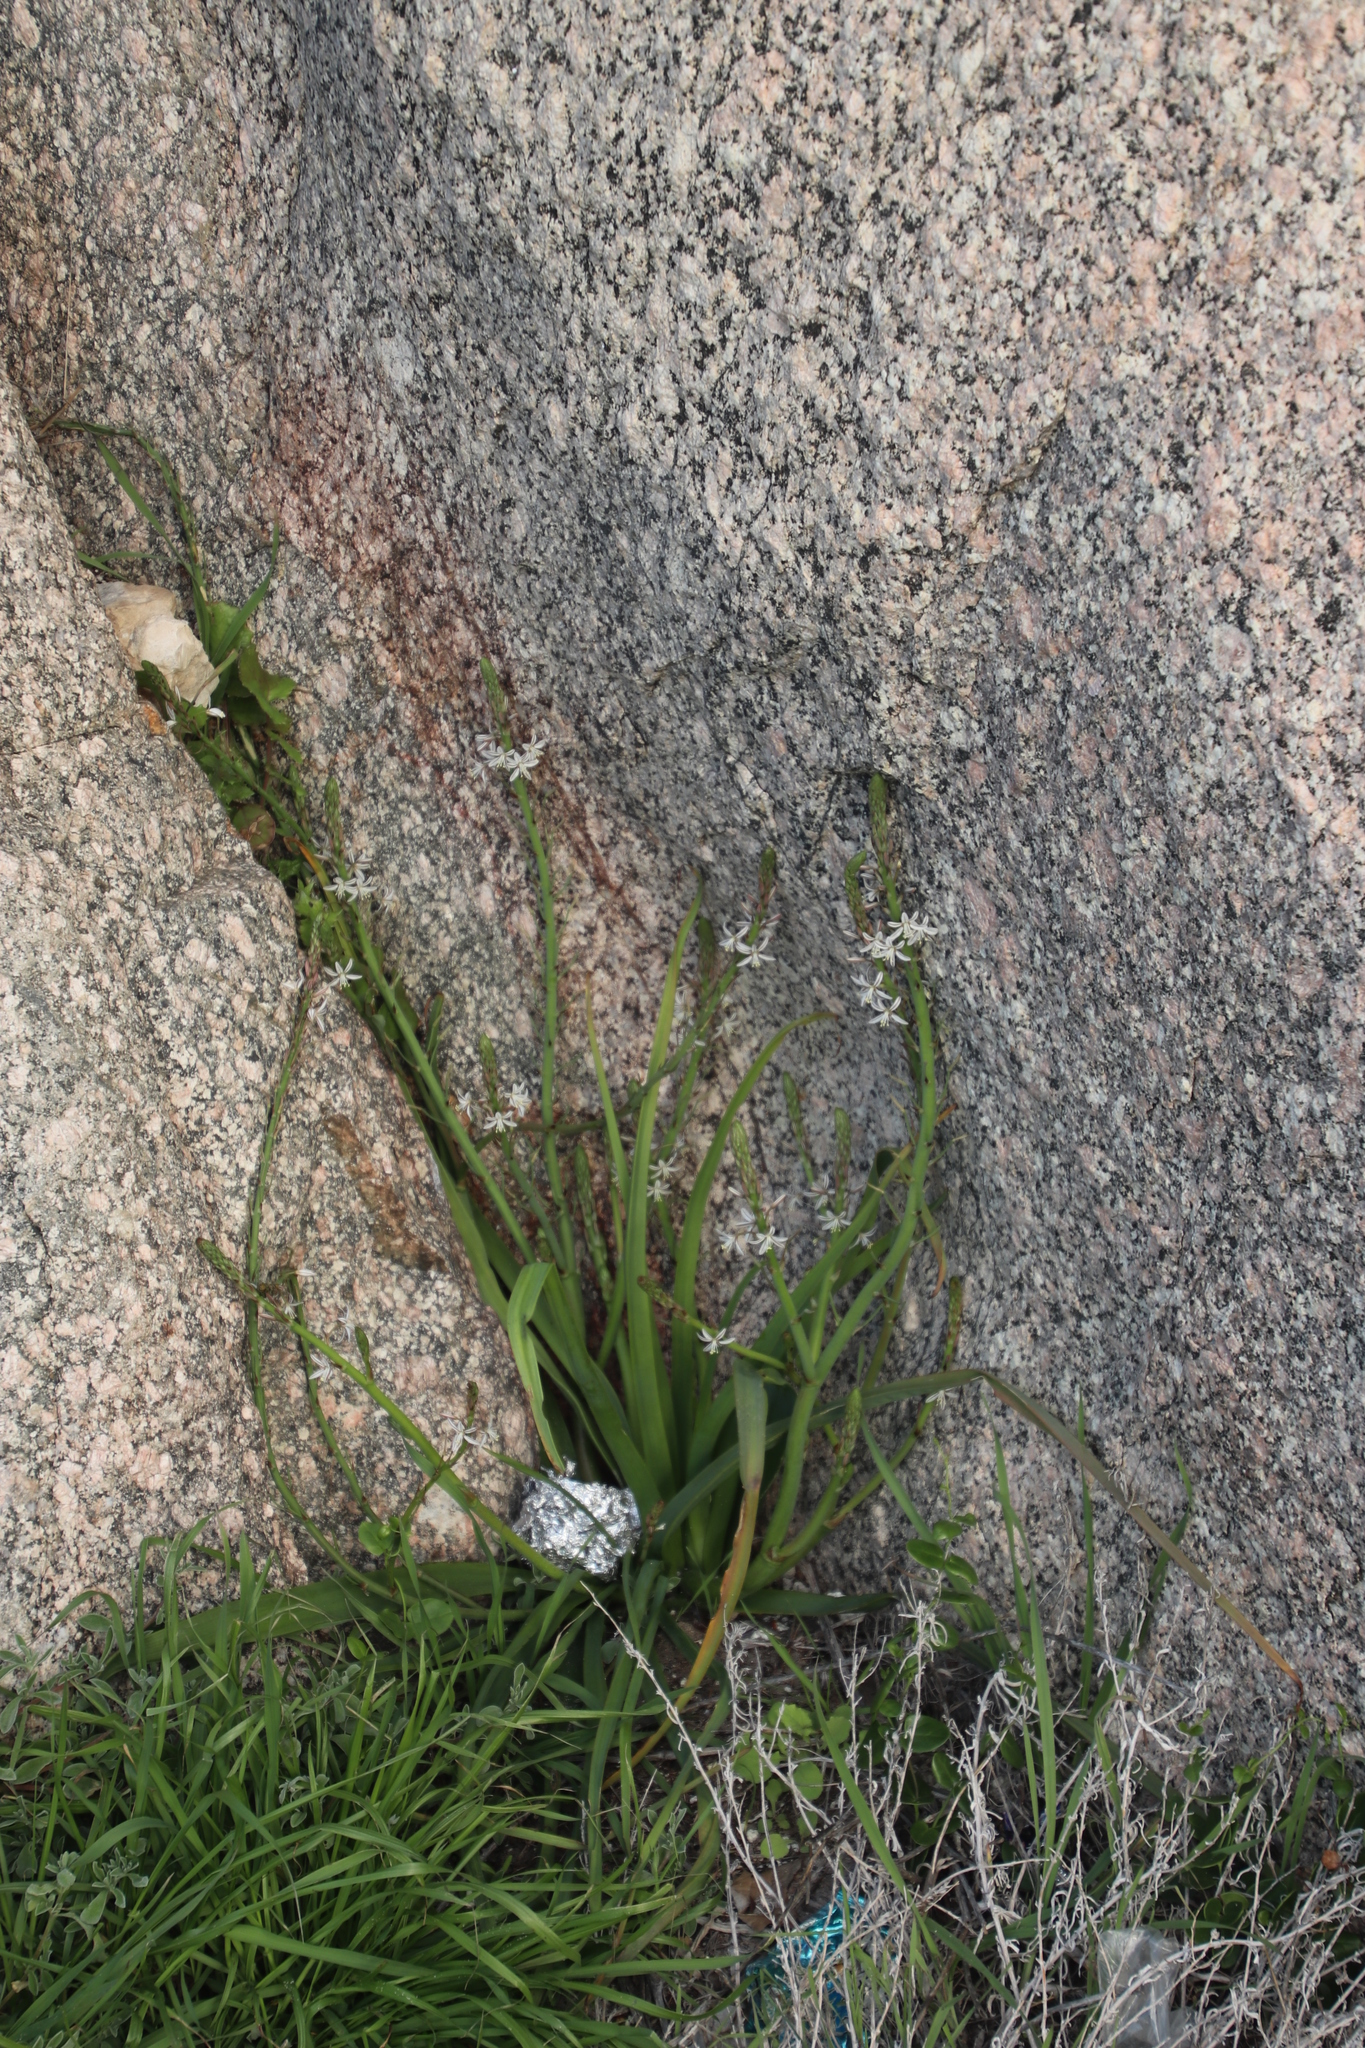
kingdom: Plantae
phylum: Tracheophyta
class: Liliopsida
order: Asparagales
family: Asphodelaceae
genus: Trachyandra
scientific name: Trachyandra hispida
